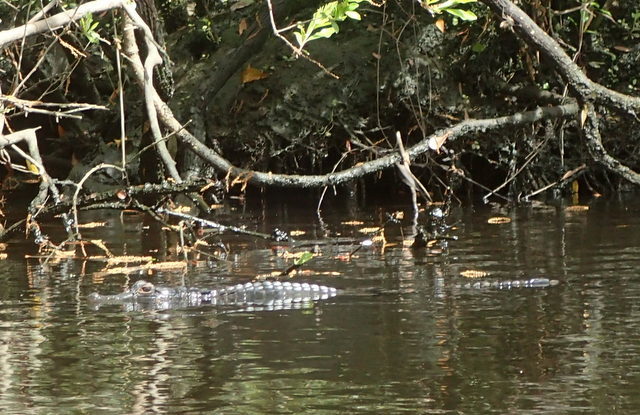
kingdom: Animalia
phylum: Chordata
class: Crocodylia
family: Alligatoridae
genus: Alligator
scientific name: Alligator mississippiensis
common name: American alligator
